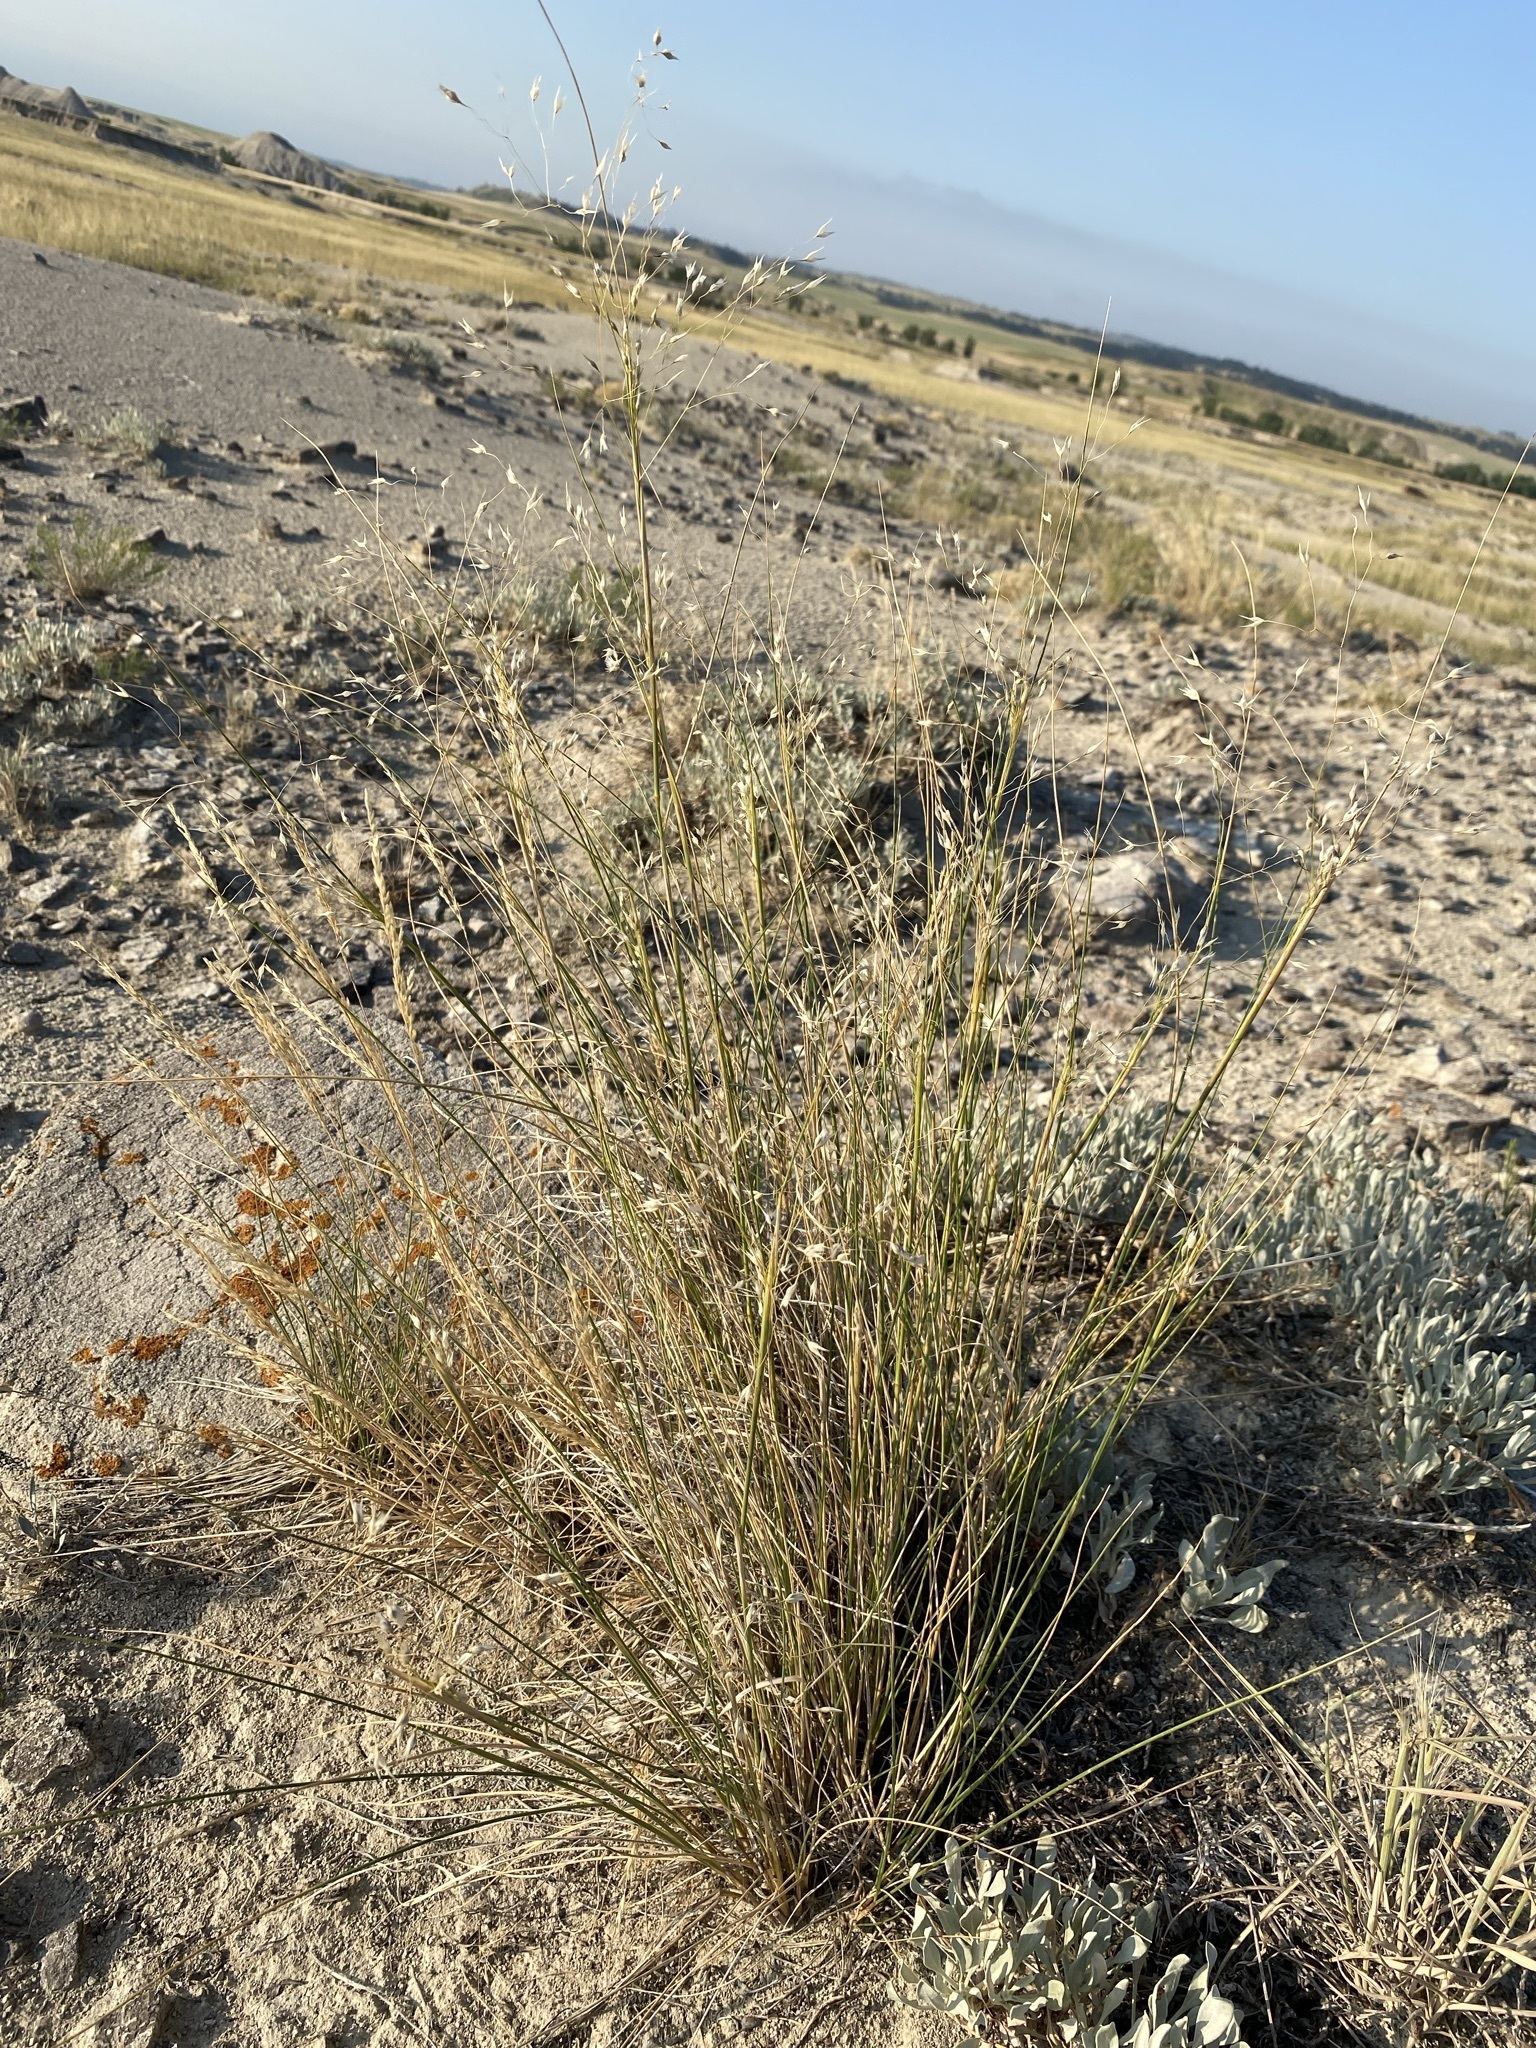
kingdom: Plantae
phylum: Tracheophyta
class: Liliopsida
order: Poales
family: Poaceae
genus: Eriocoma
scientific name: Eriocoma hymenoides
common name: Indian mountain ricegrass
